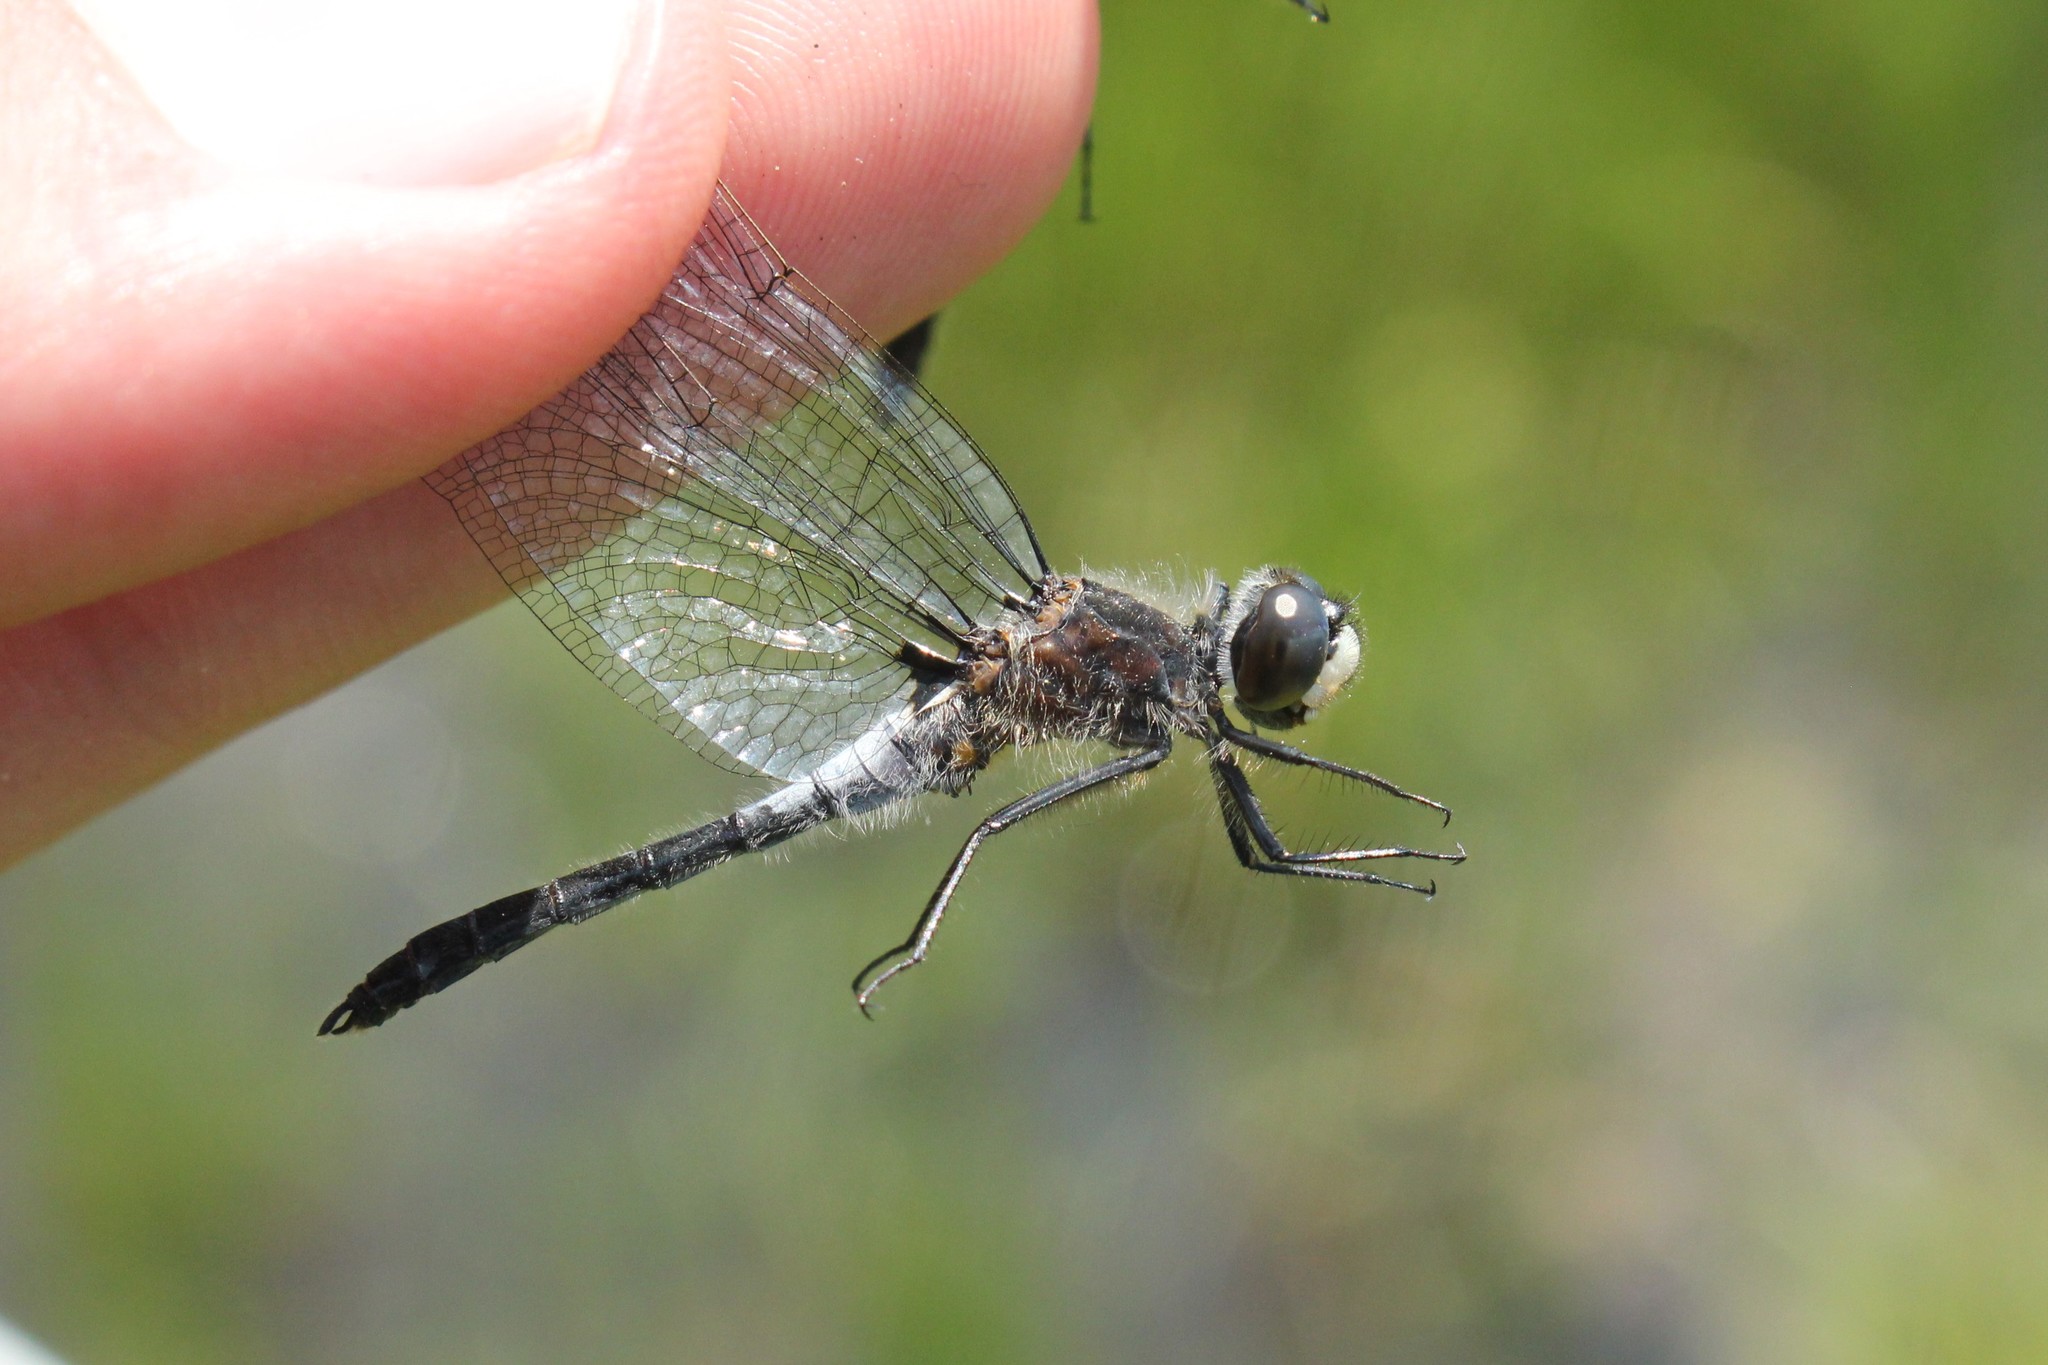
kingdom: Animalia
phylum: Arthropoda
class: Insecta
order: Odonata
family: Libellulidae
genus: Leucorrhinia
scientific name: Leucorrhinia frigida
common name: Frosted whiteface
